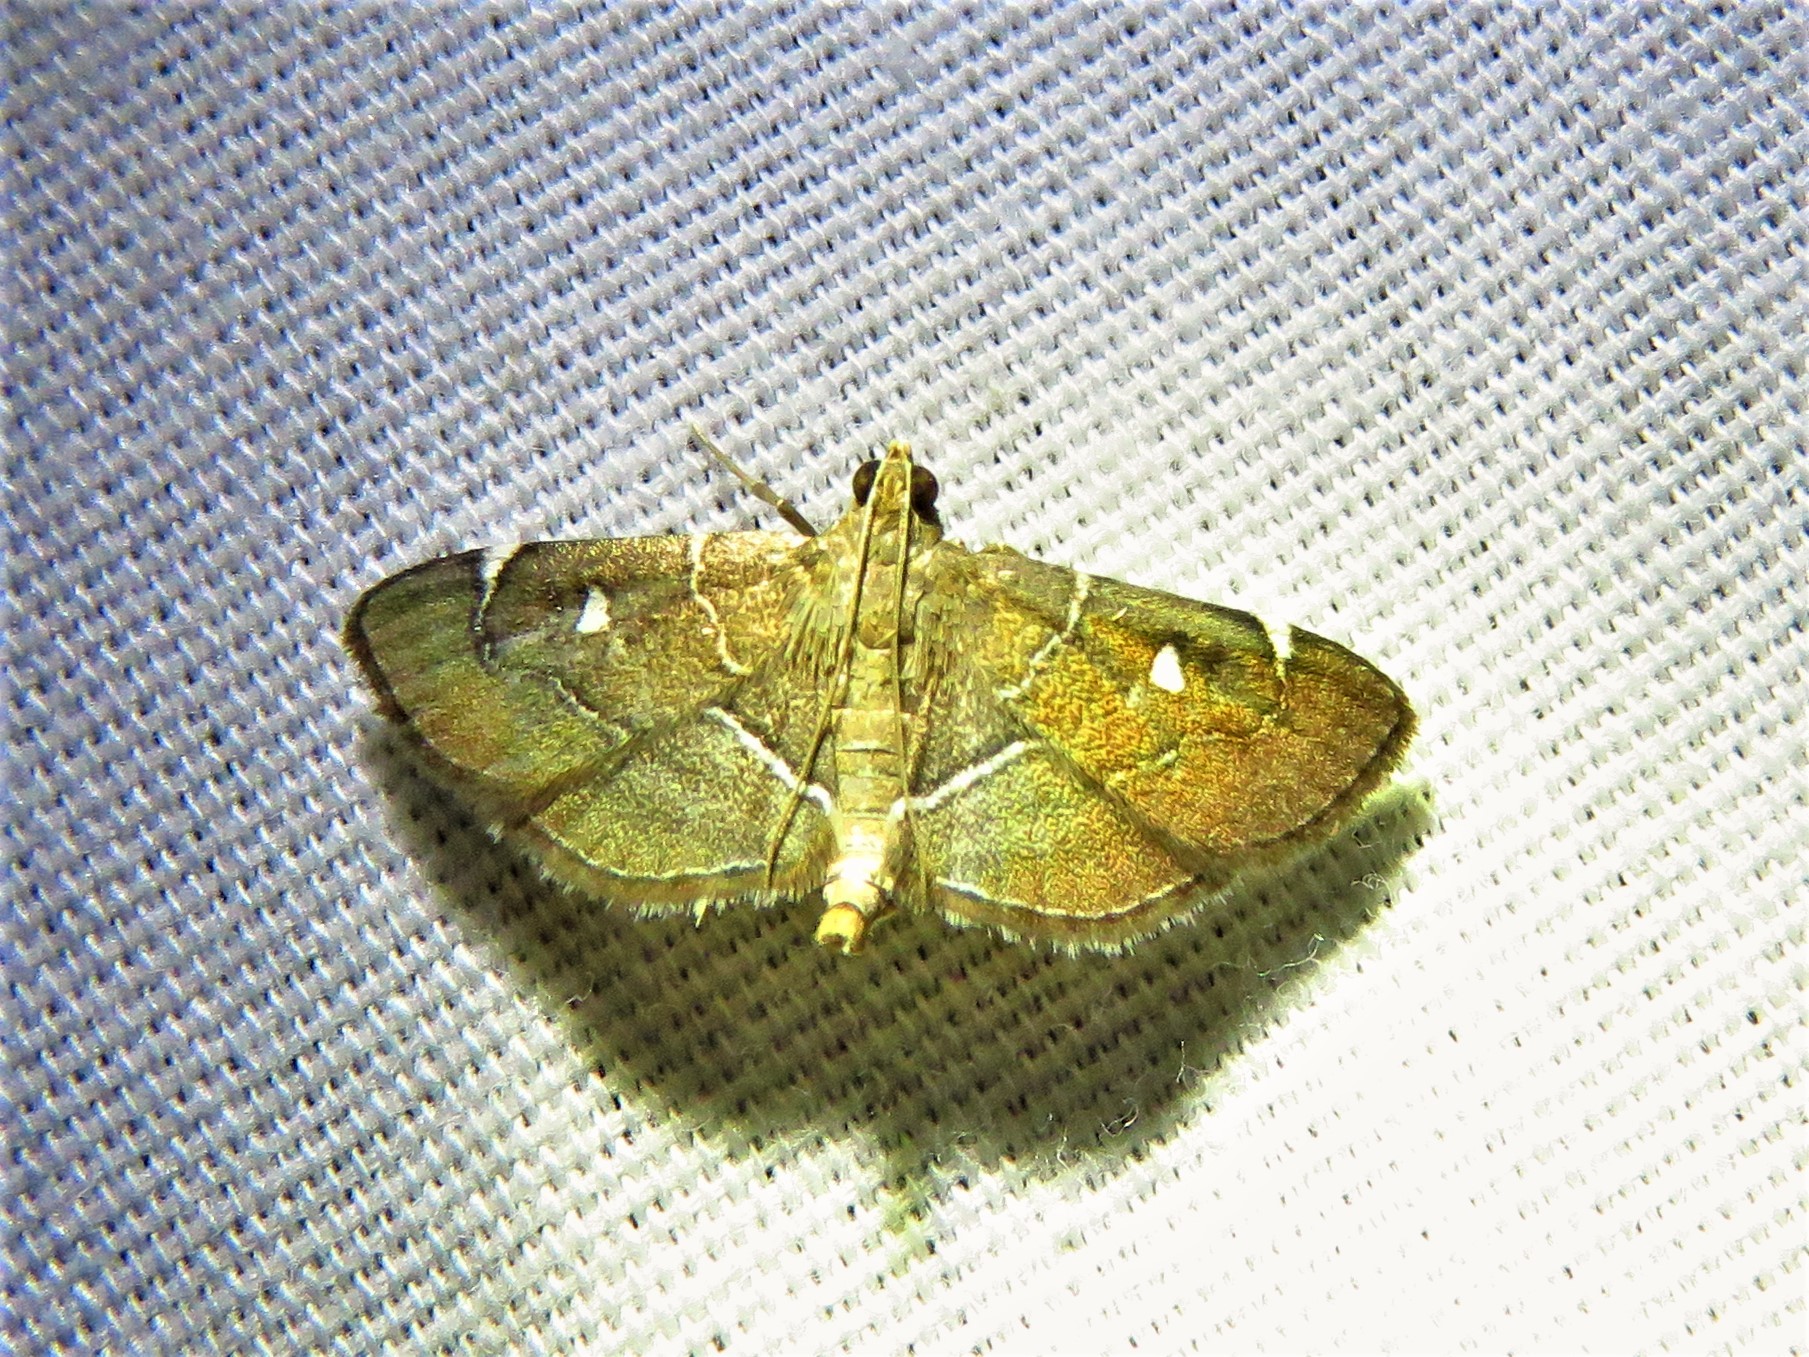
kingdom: Animalia
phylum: Arthropoda
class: Insecta
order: Lepidoptera
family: Crambidae
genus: Lamprosema
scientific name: Lamprosema victoriae
